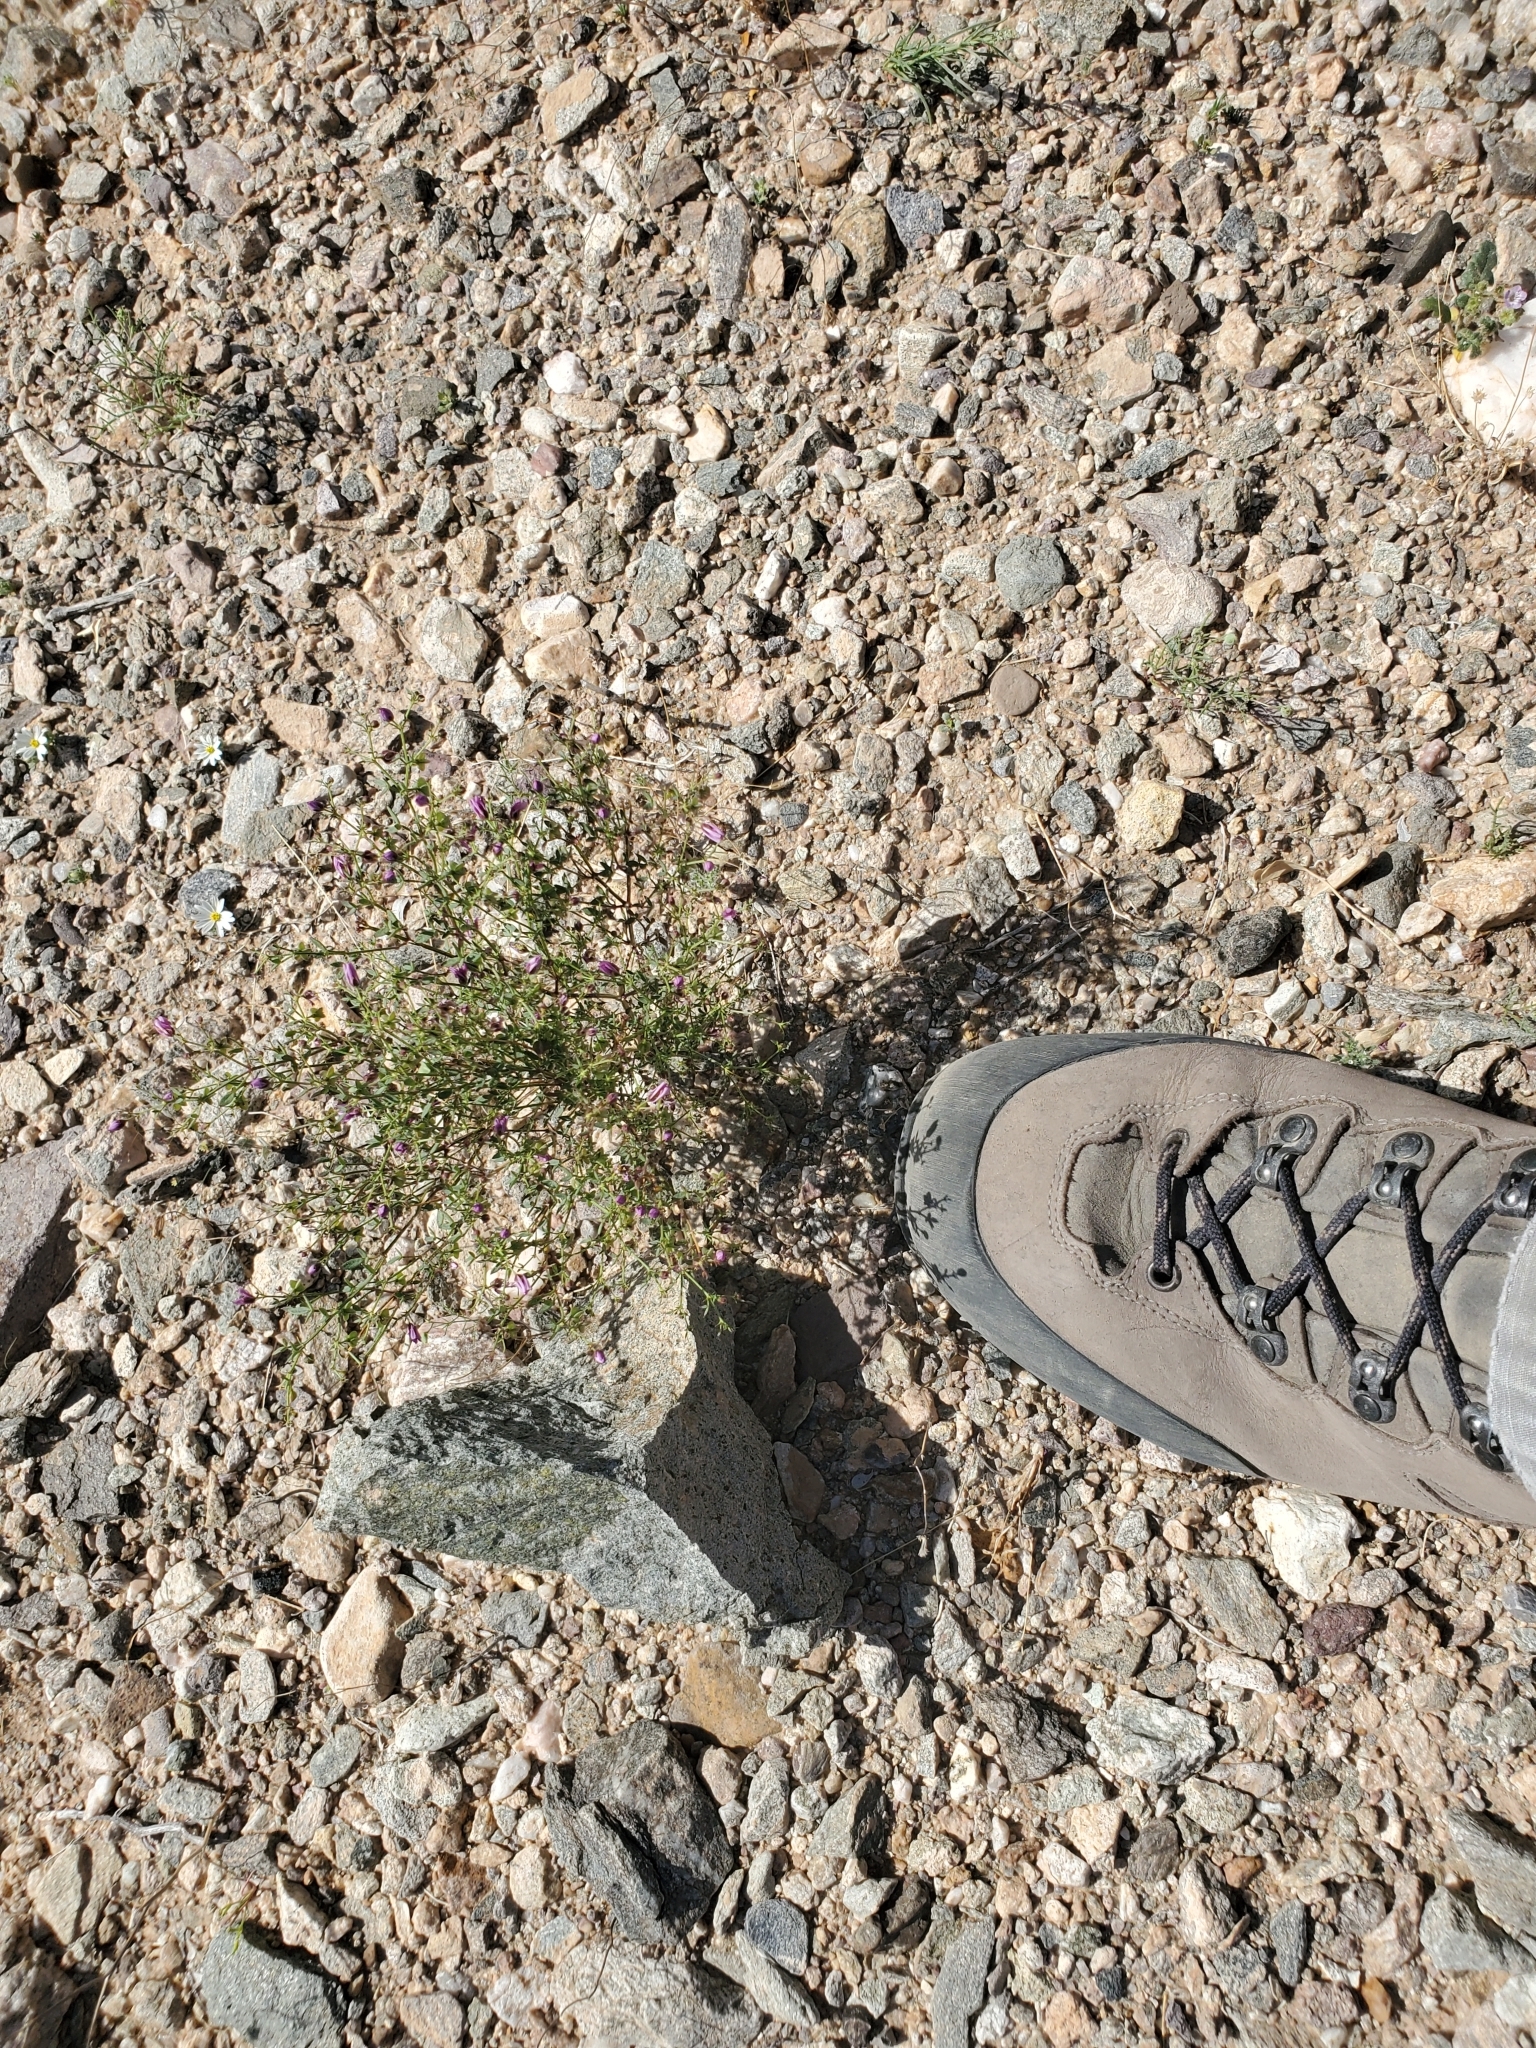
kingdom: Plantae
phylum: Tracheophyta
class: Magnoliopsida
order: Zygophyllales
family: Zygophyllaceae
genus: Fagonia
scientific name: Fagonia laevis
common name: California fagonbush
